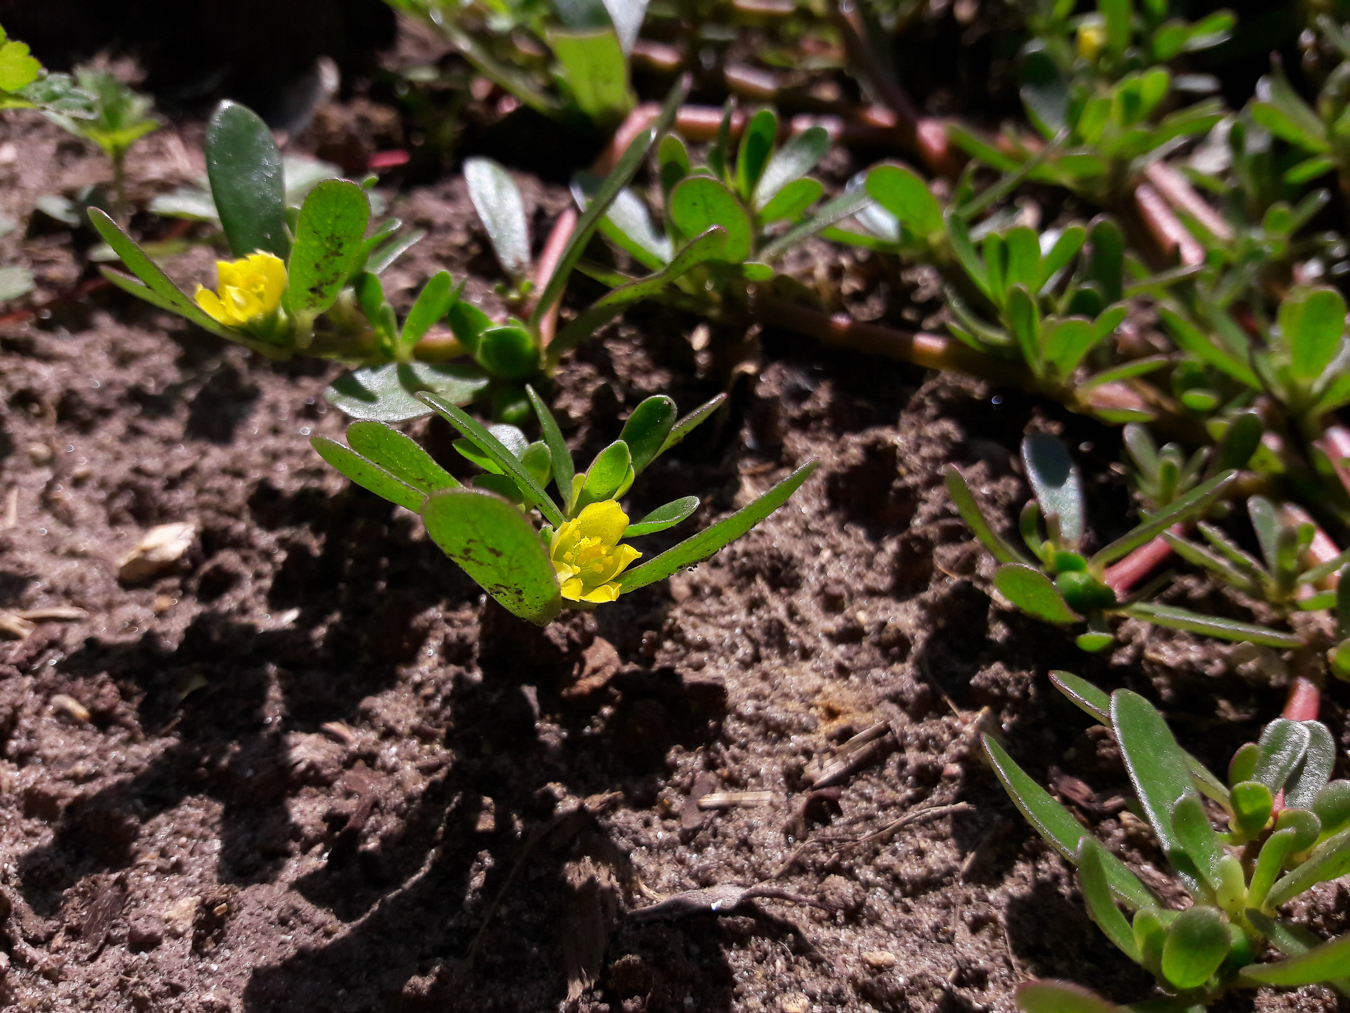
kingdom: Plantae
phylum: Tracheophyta
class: Magnoliopsida
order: Caryophyllales
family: Portulacaceae
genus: Portulaca
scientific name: Portulaca oleracea
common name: Common purslane
